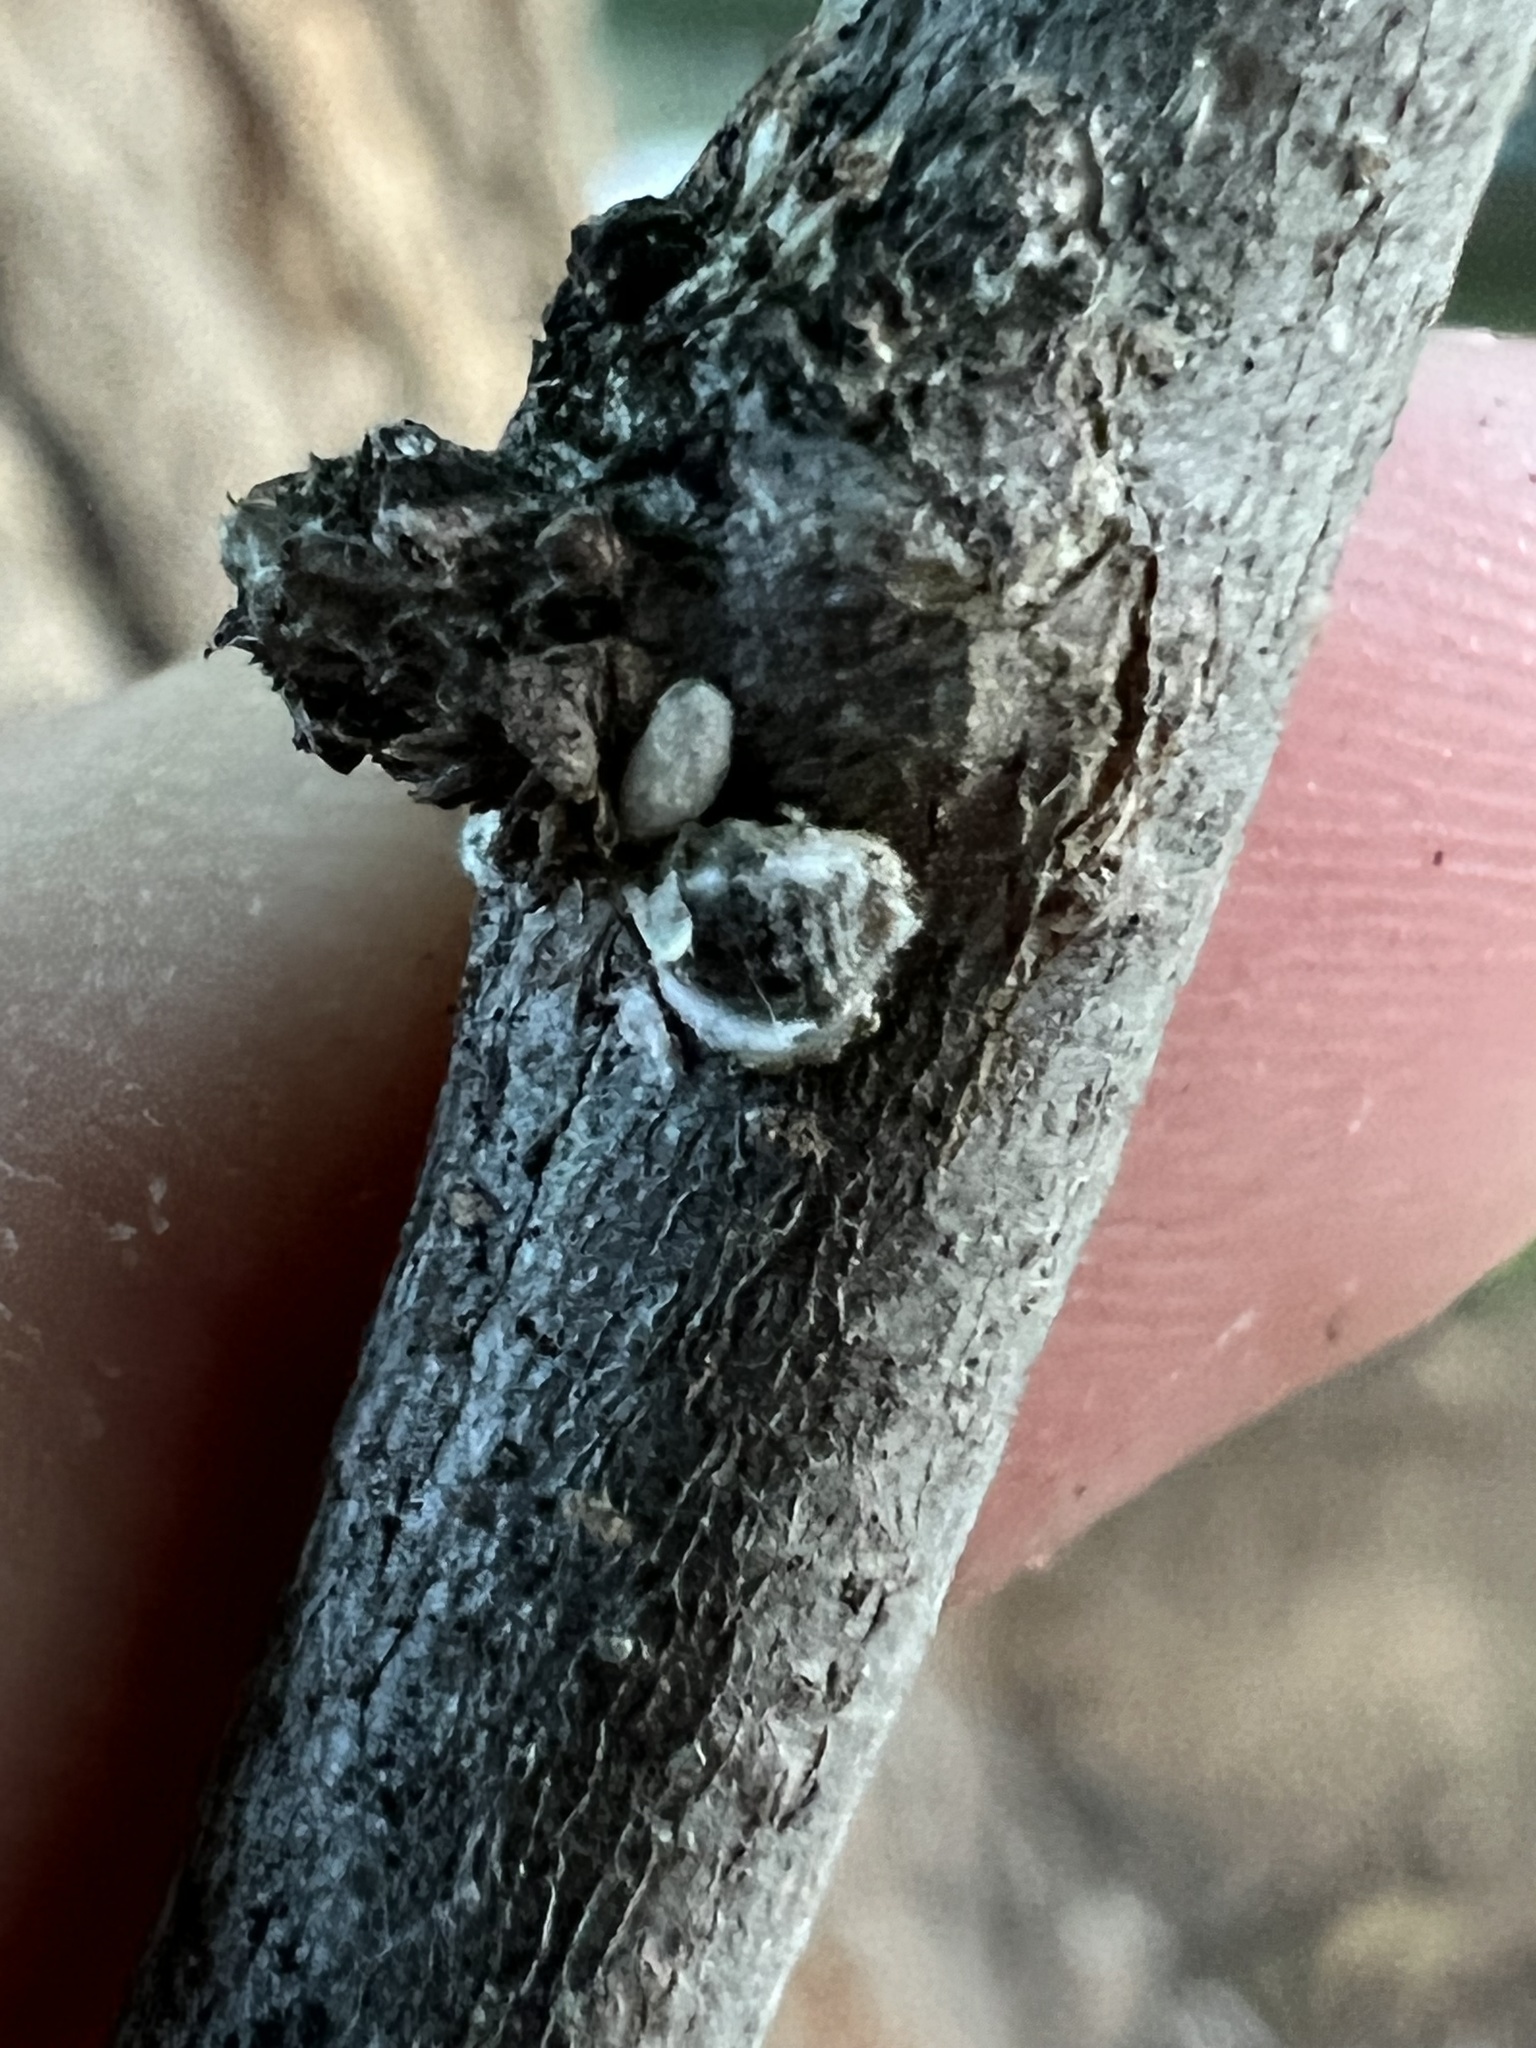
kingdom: Animalia
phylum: Arthropoda
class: Insecta
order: Hemiptera
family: Eriococcidae
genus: Eriococcus
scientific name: Eriococcus spurius
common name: European elm scale
